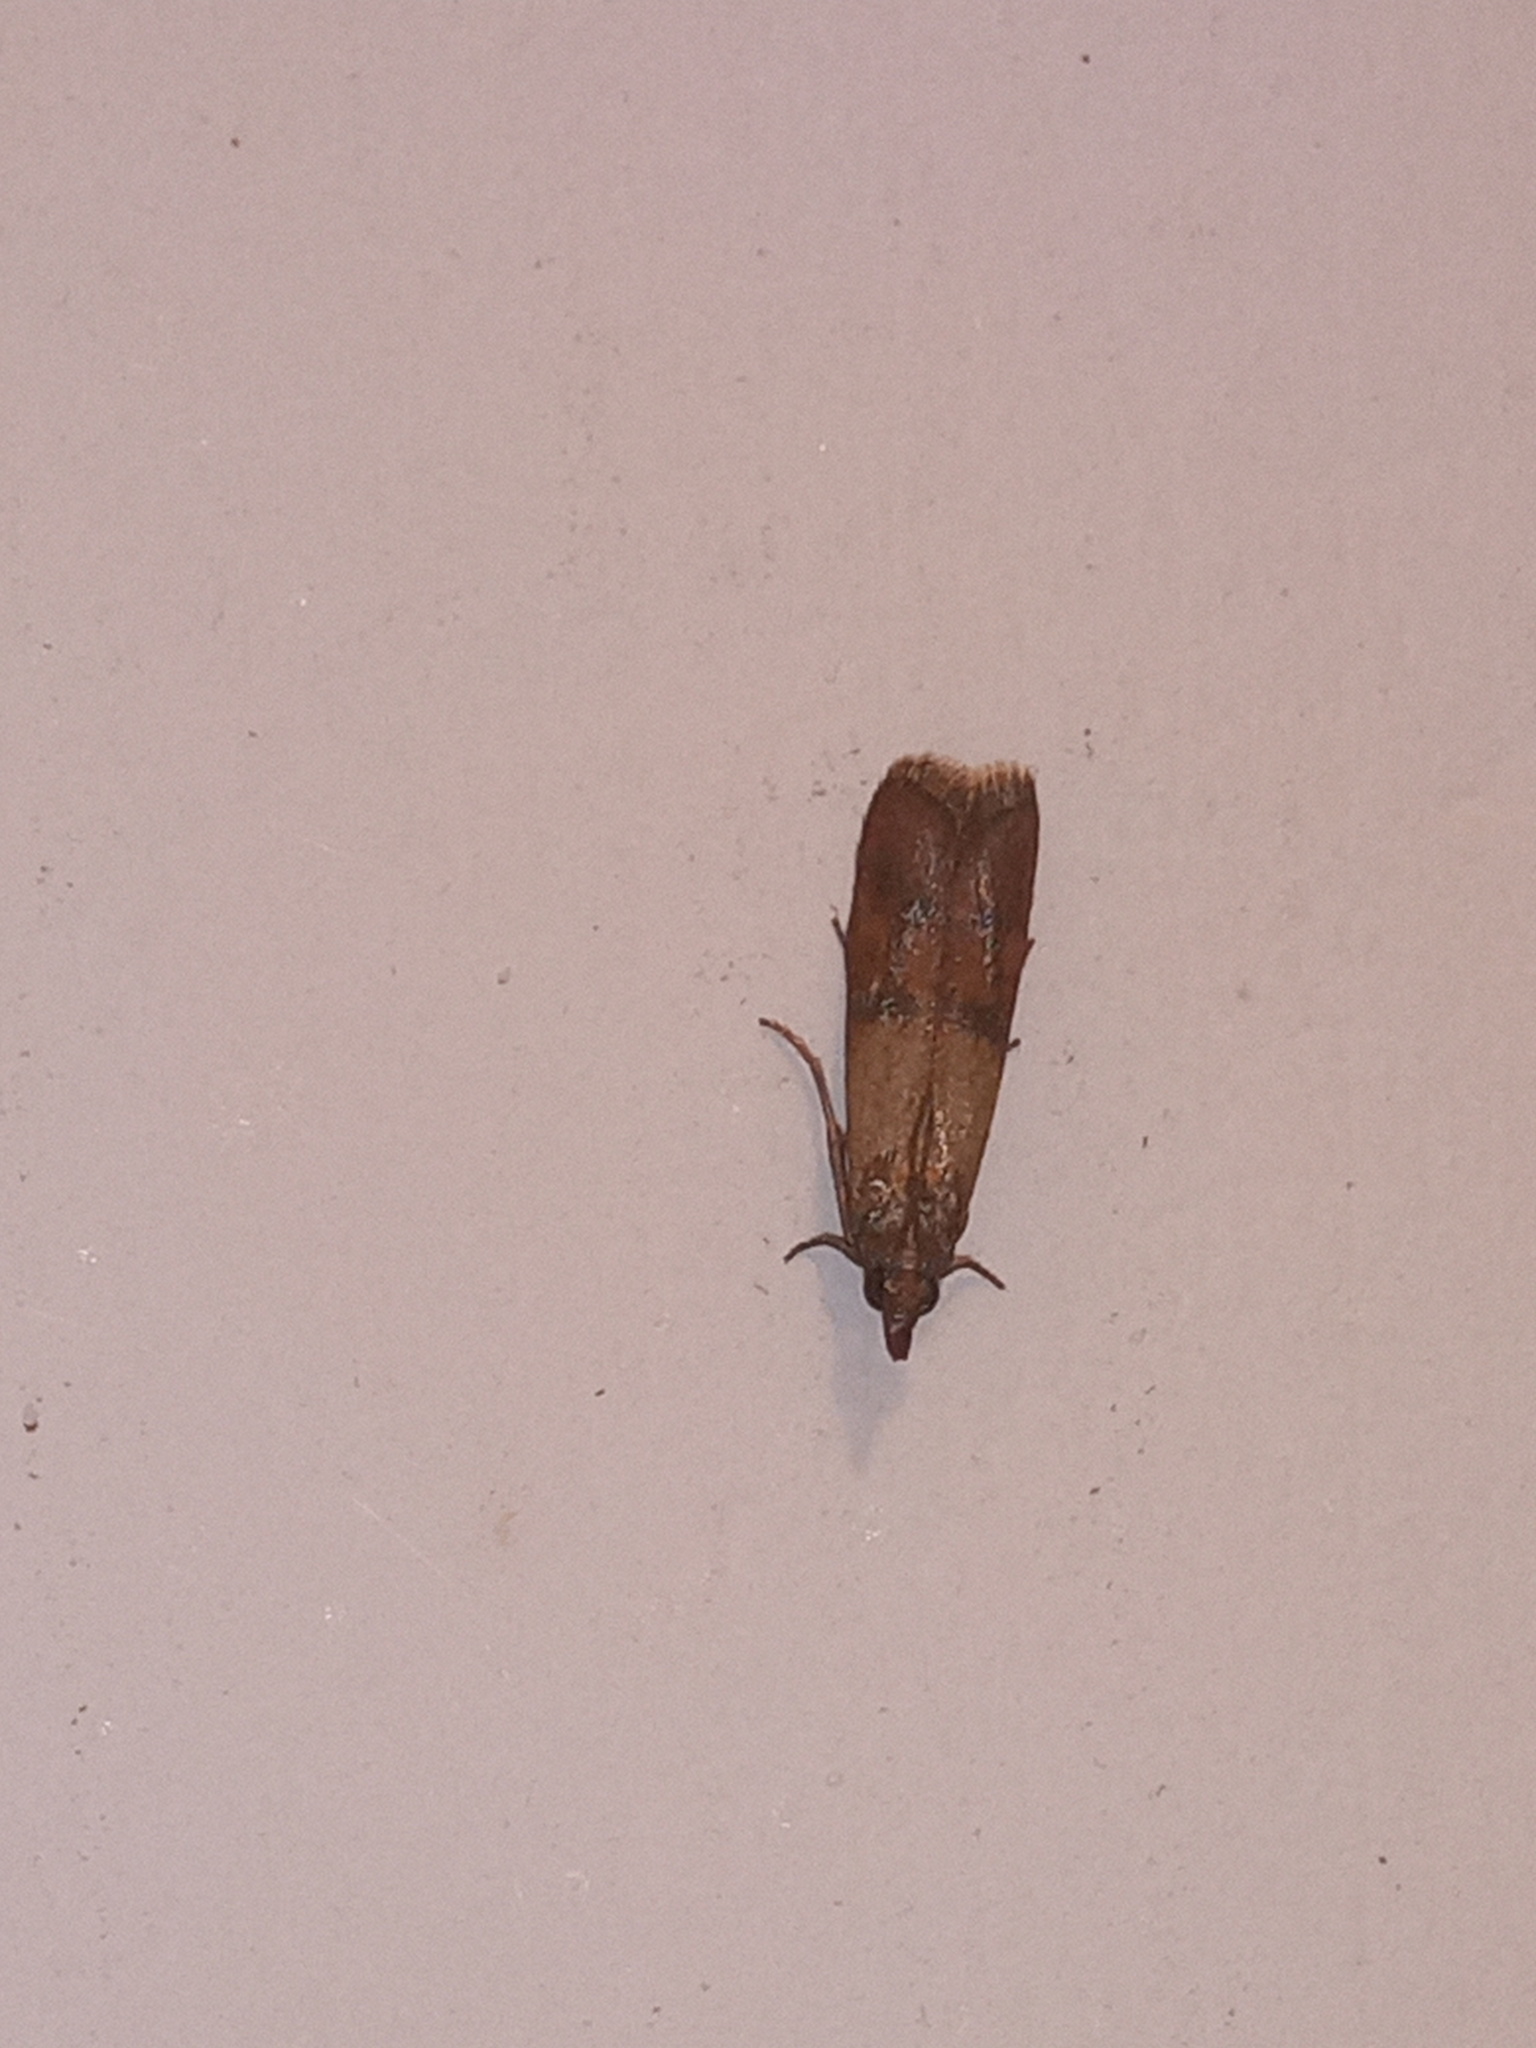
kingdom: Animalia
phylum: Arthropoda
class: Insecta
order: Lepidoptera
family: Pyralidae
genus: Plodia
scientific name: Plodia interpunctella
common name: Indian meal moth
